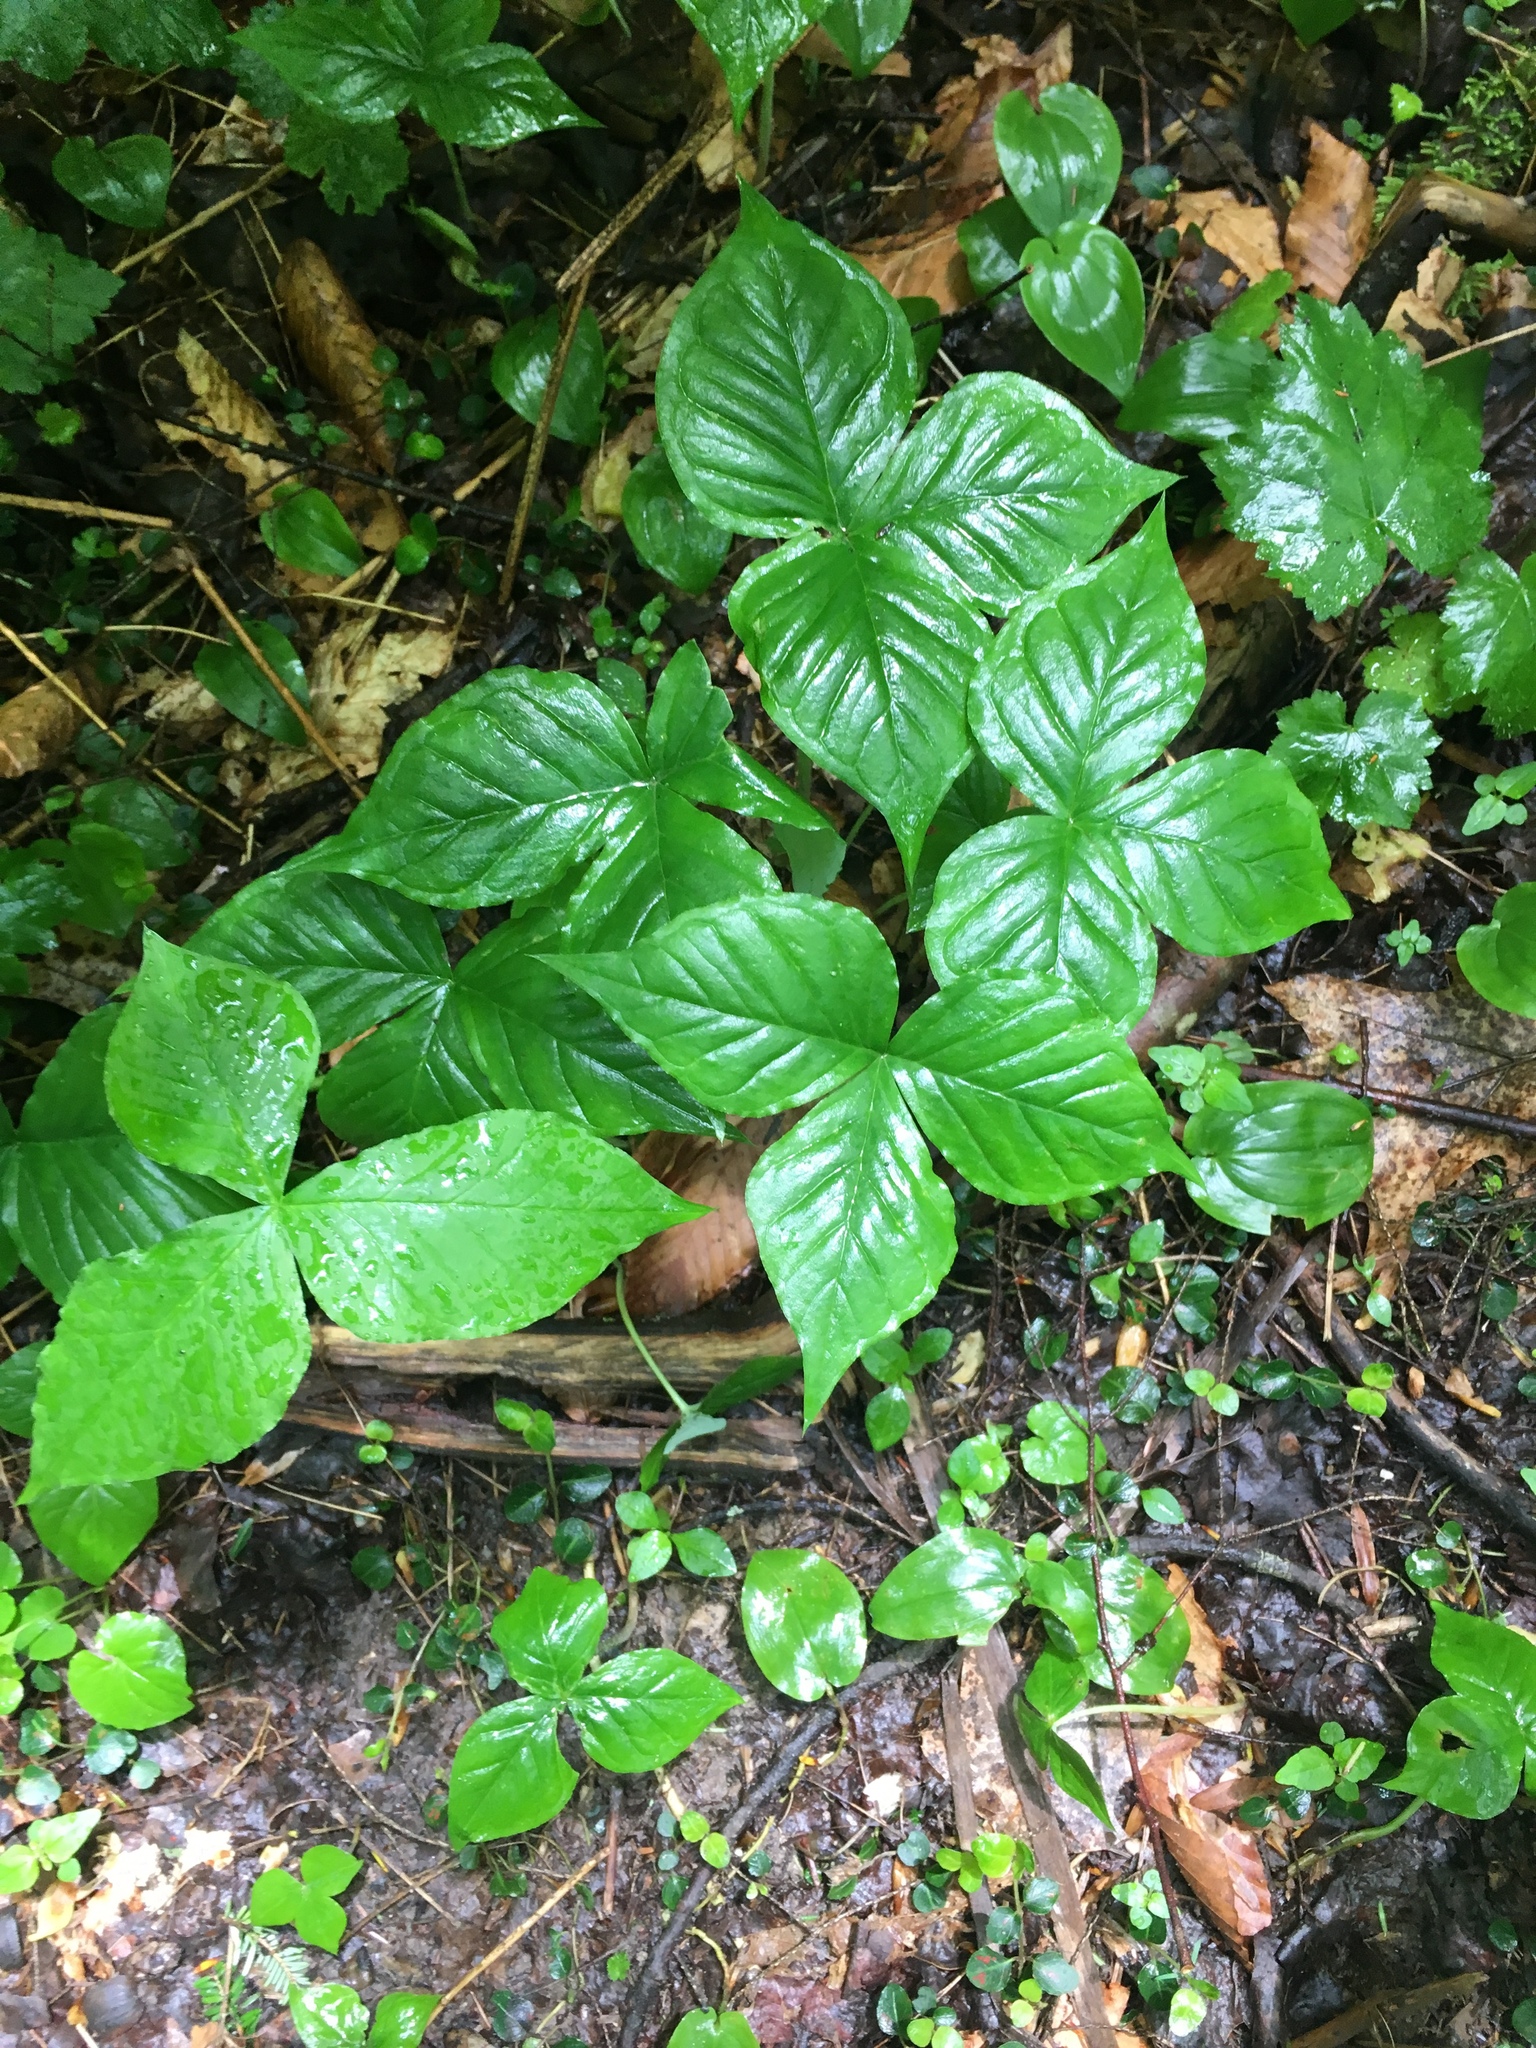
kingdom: Plantae
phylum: Tracheophyta
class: Liliopsida
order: Alismatales
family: Araceae
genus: Arisaema
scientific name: Arisaema triphyllum
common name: Jack-in-the-pulpit
